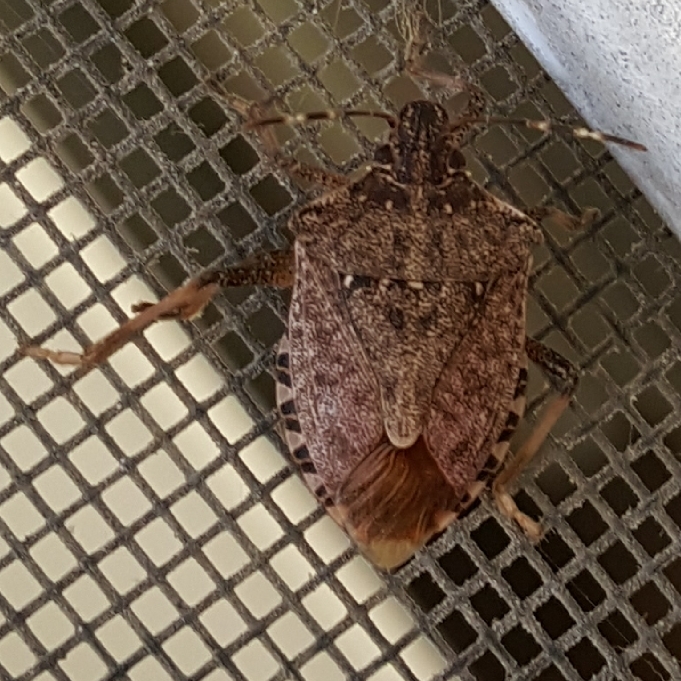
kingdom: Animalia
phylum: Arthropoda
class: Insecta
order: Hemiptera
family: Pentatomidae
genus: Halyomorpha
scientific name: Halyomorpha halys
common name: Brown marmorated stink bug
